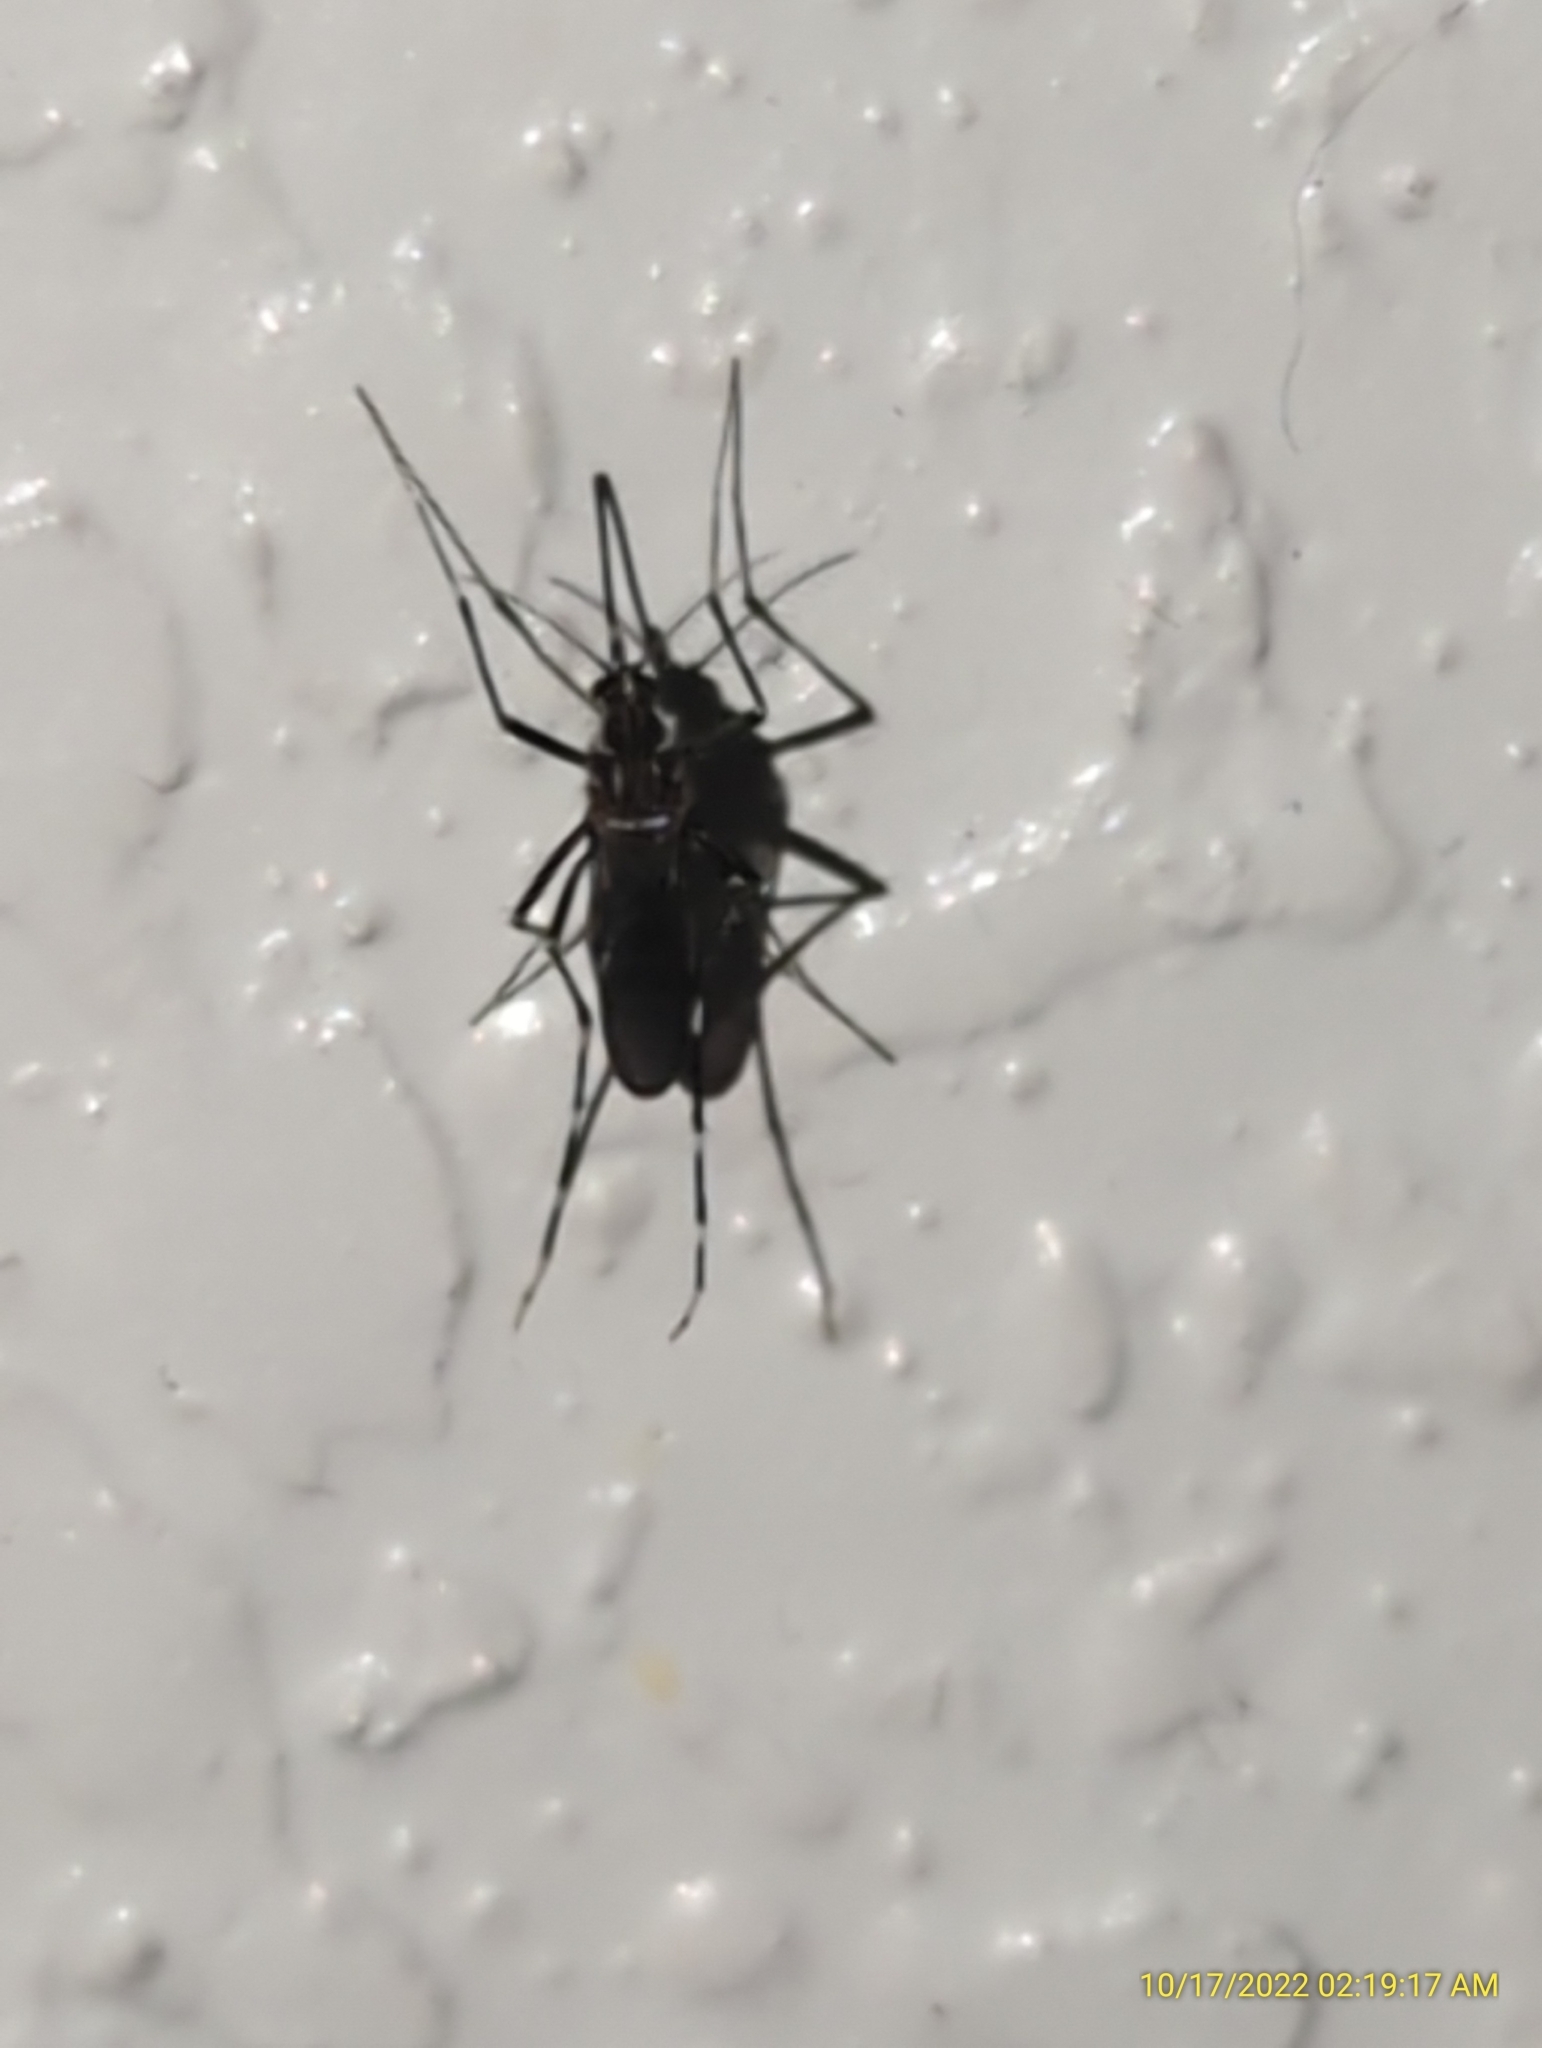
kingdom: Animalia
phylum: Arthropoda
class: Insecta
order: Diptera
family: Culicidae
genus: Aedes
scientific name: Aedes aegypti
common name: Yellow fever mosquito
